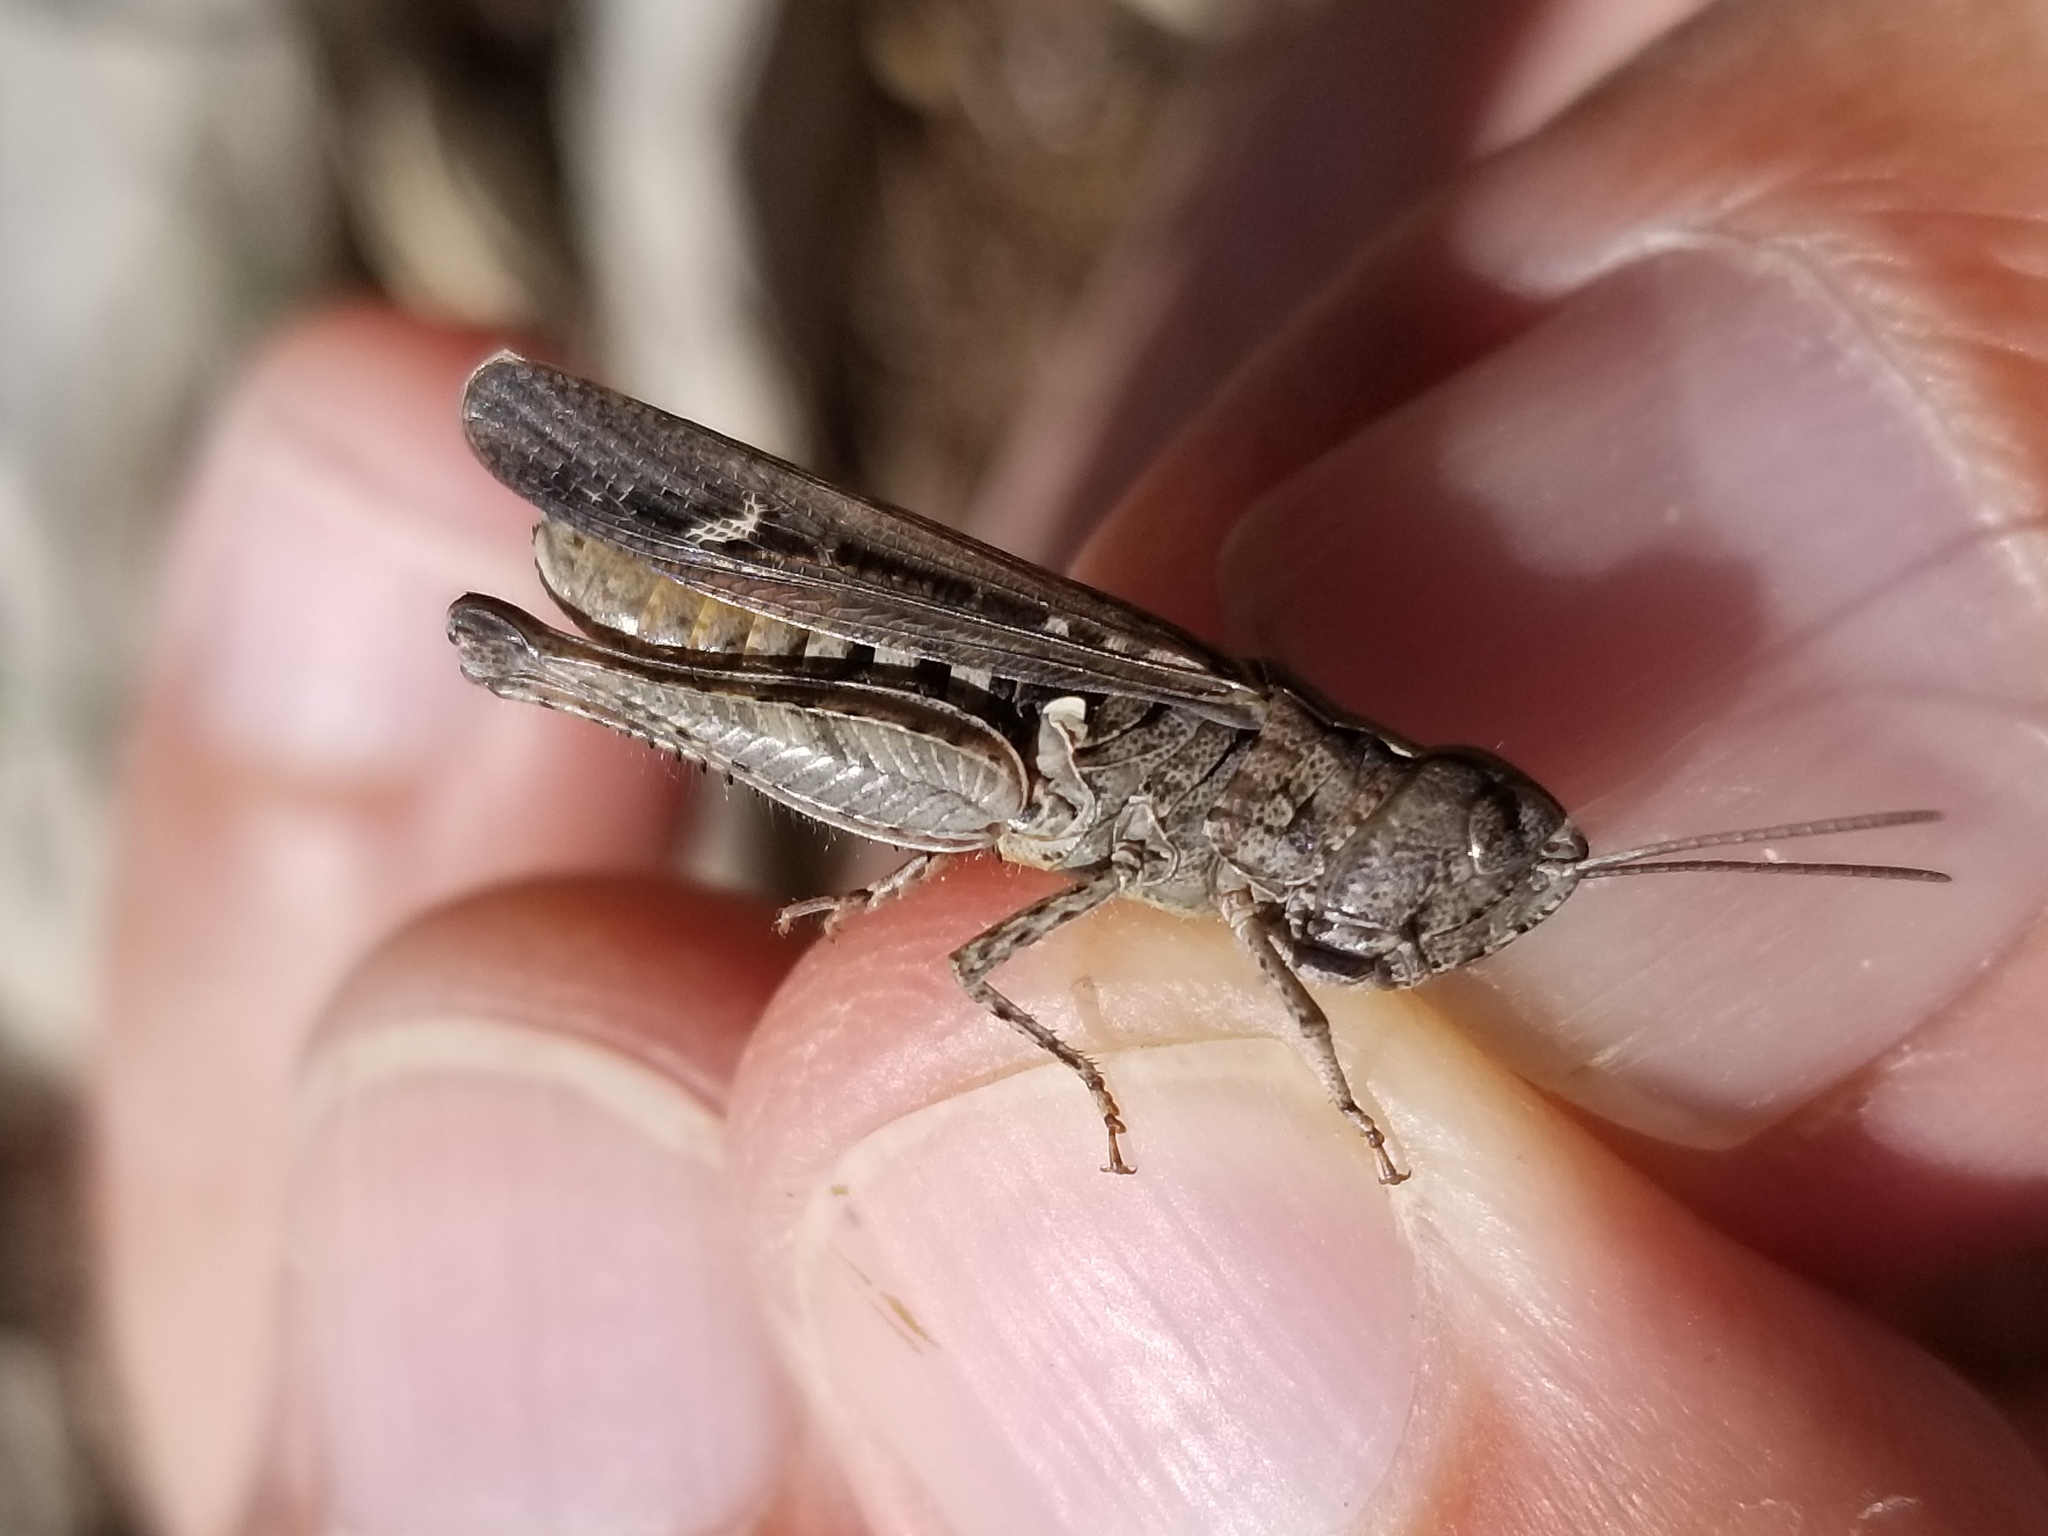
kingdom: Animalia
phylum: Arthropoda
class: Insecta
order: Orthoptera
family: Acrididae
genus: Omocestus
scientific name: Omocestus raymondi
